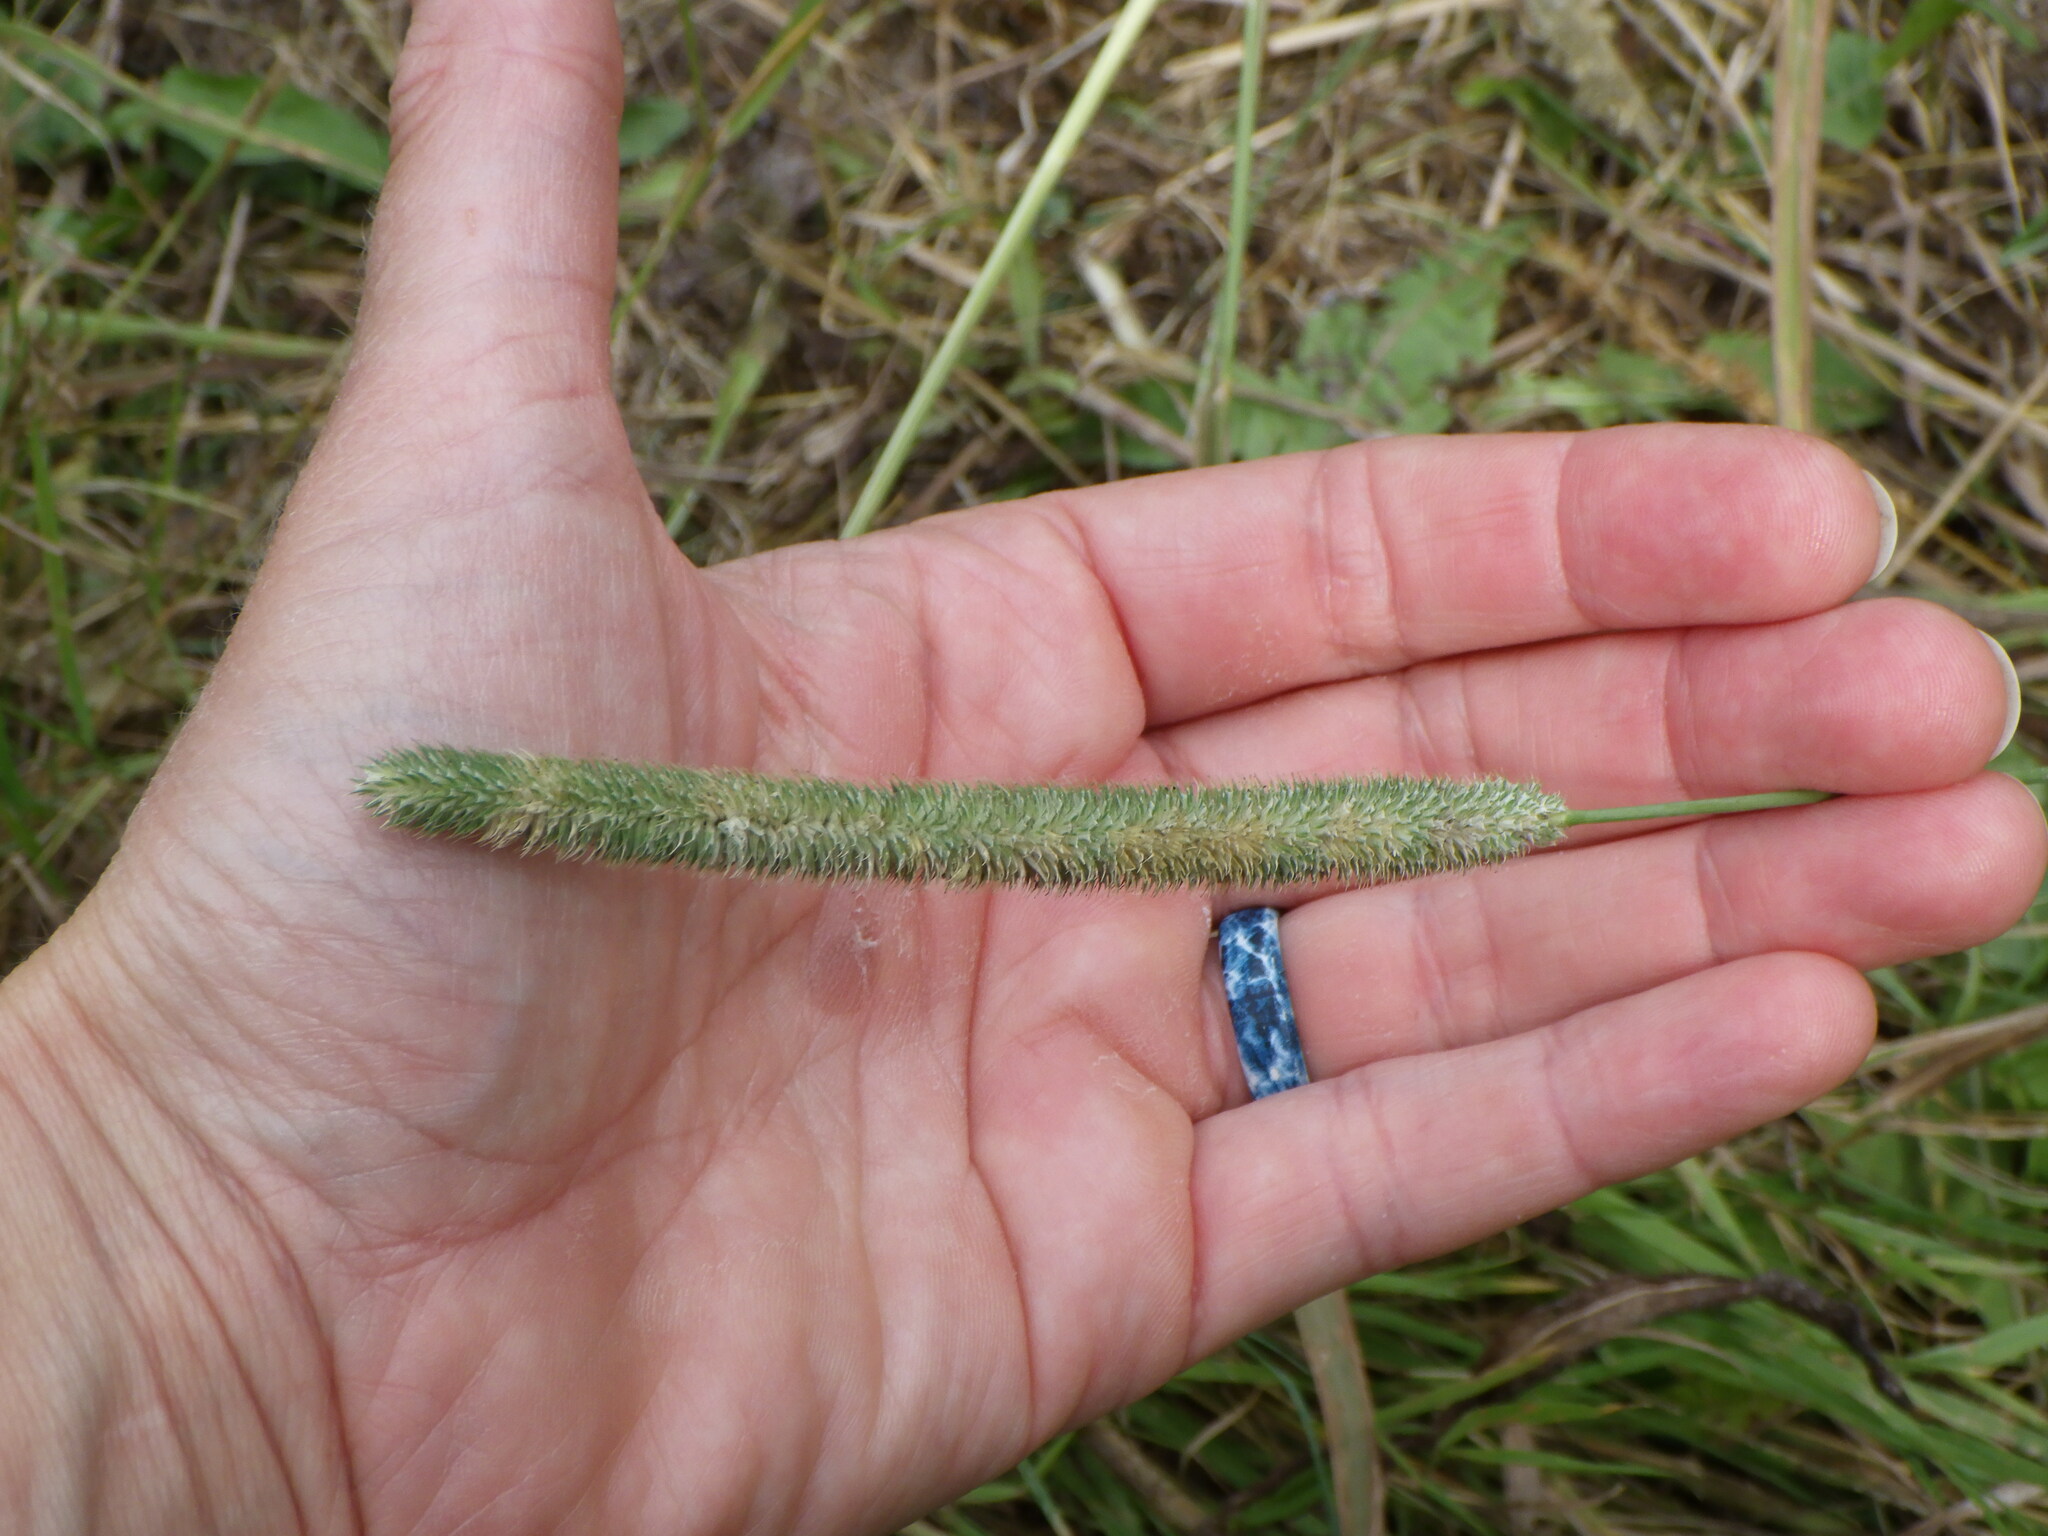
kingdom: Plantae
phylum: Tracheophyta
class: Liliopsida
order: Poales
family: Poaceae
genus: Phleum
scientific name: Phleum pratense
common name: Timothy grass
